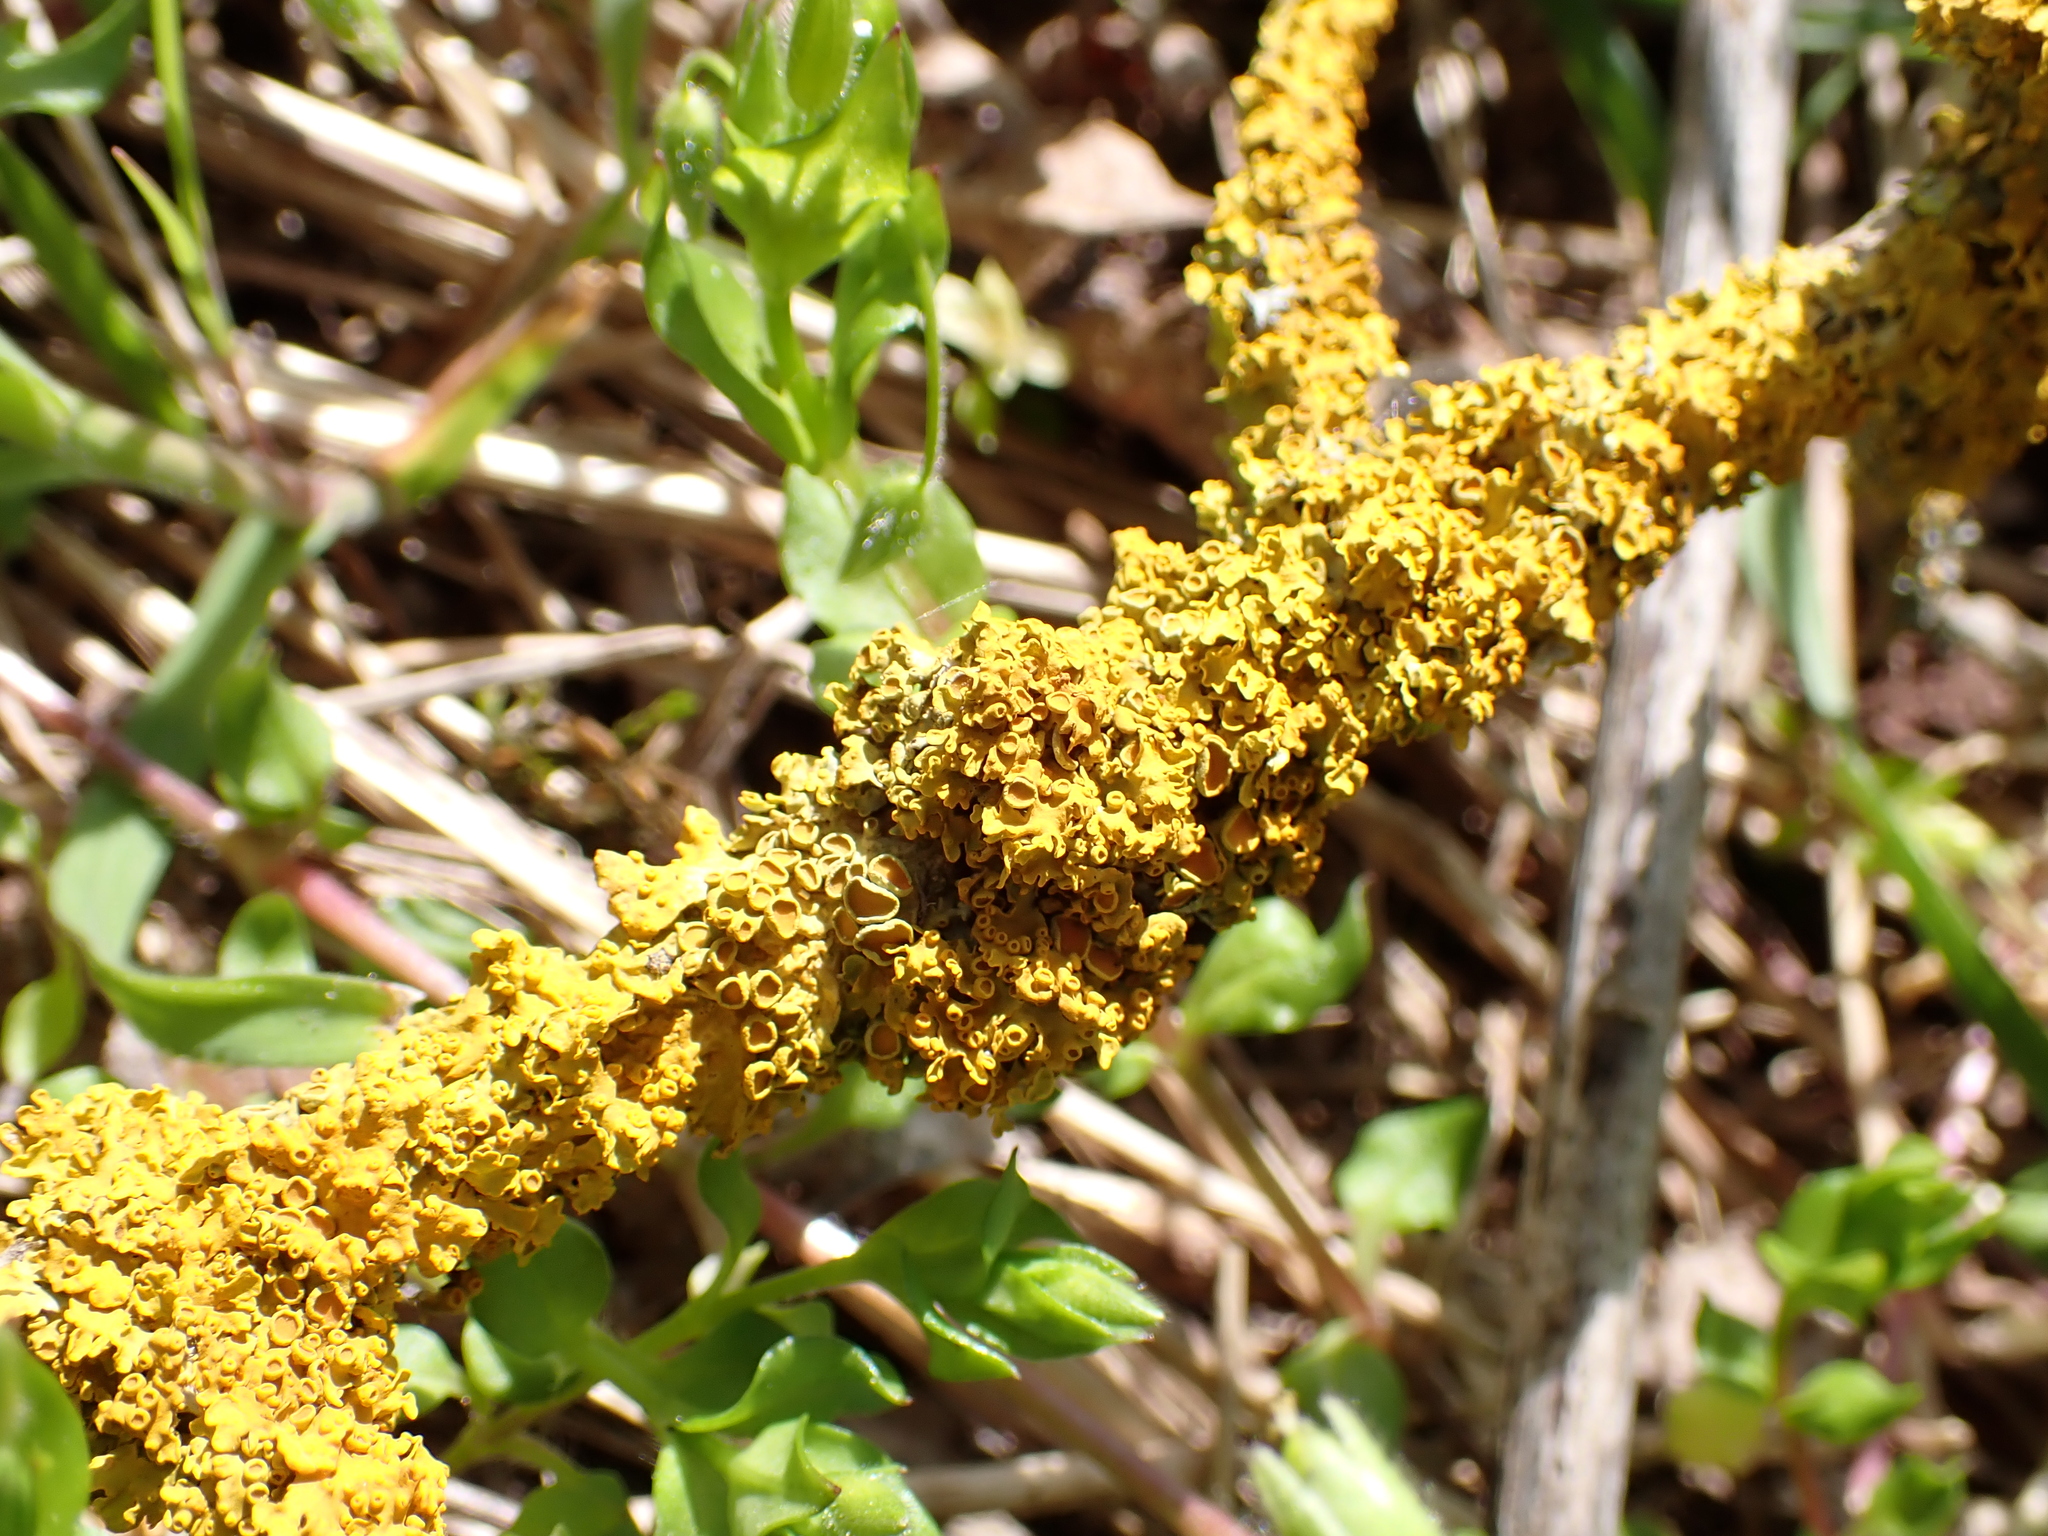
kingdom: Fungi
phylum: Ascomycota
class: Lecanoromycetes
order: Teloschistales
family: Teloschistaceae
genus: Xanthoria
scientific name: Xanthoria parietina
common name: Common orange lichen
